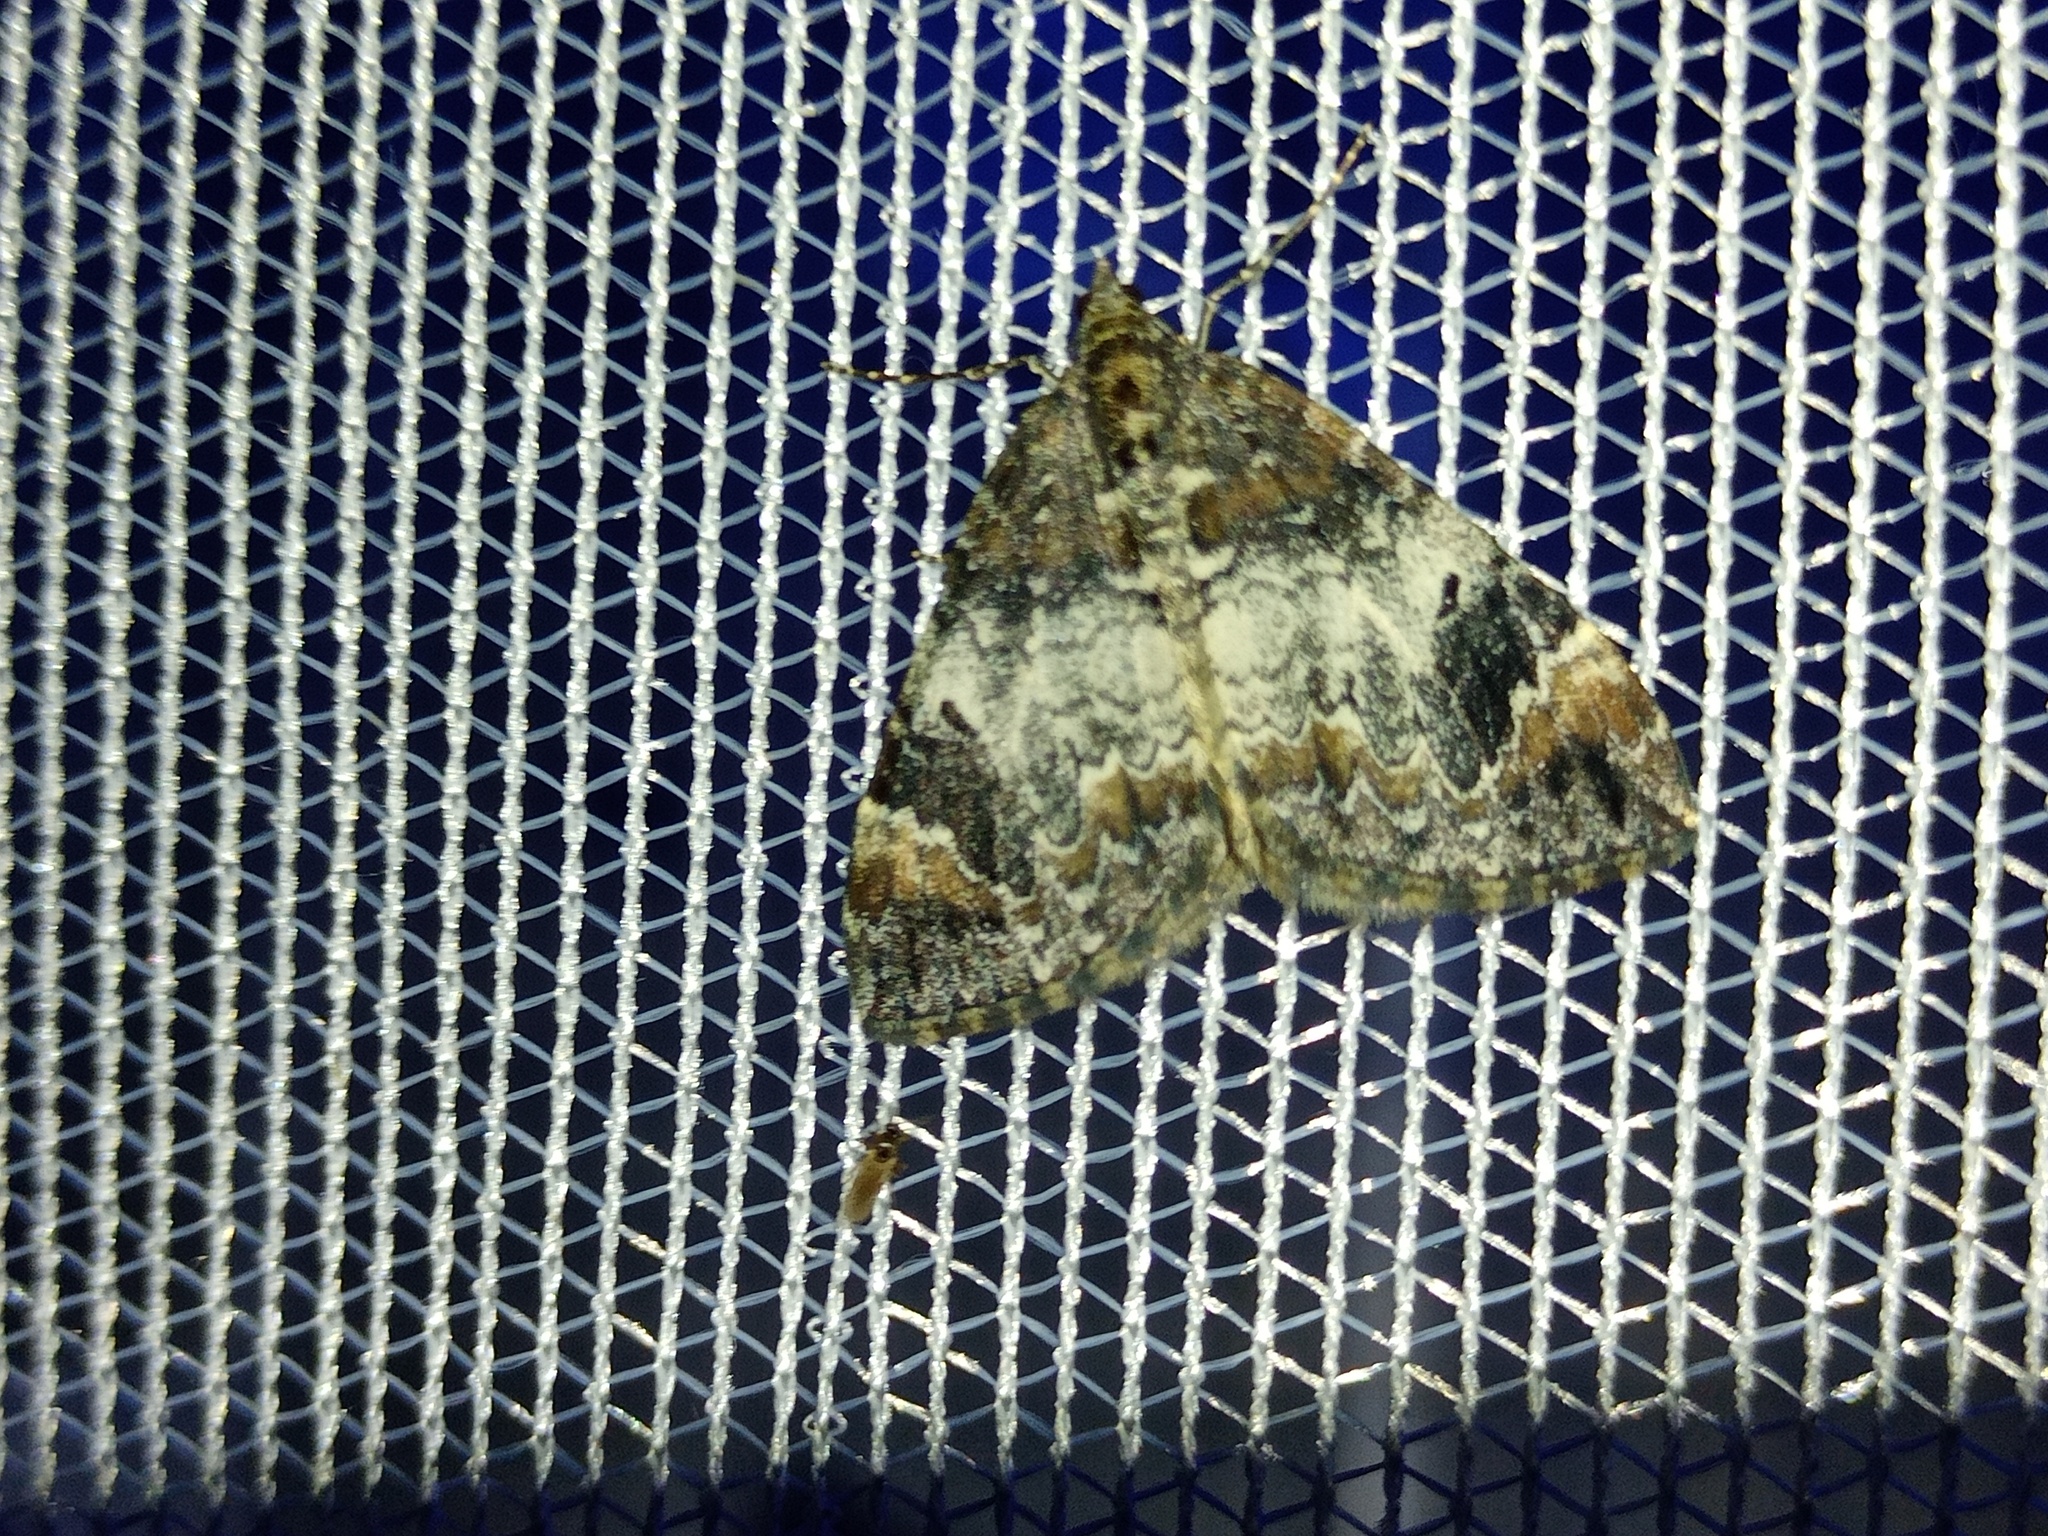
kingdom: Animalia
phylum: Arthropoda
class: Insecta
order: Lepidoptera
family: Geometridae
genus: Dysstroma
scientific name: Dysstroma truncata
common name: Common marbled carpet
